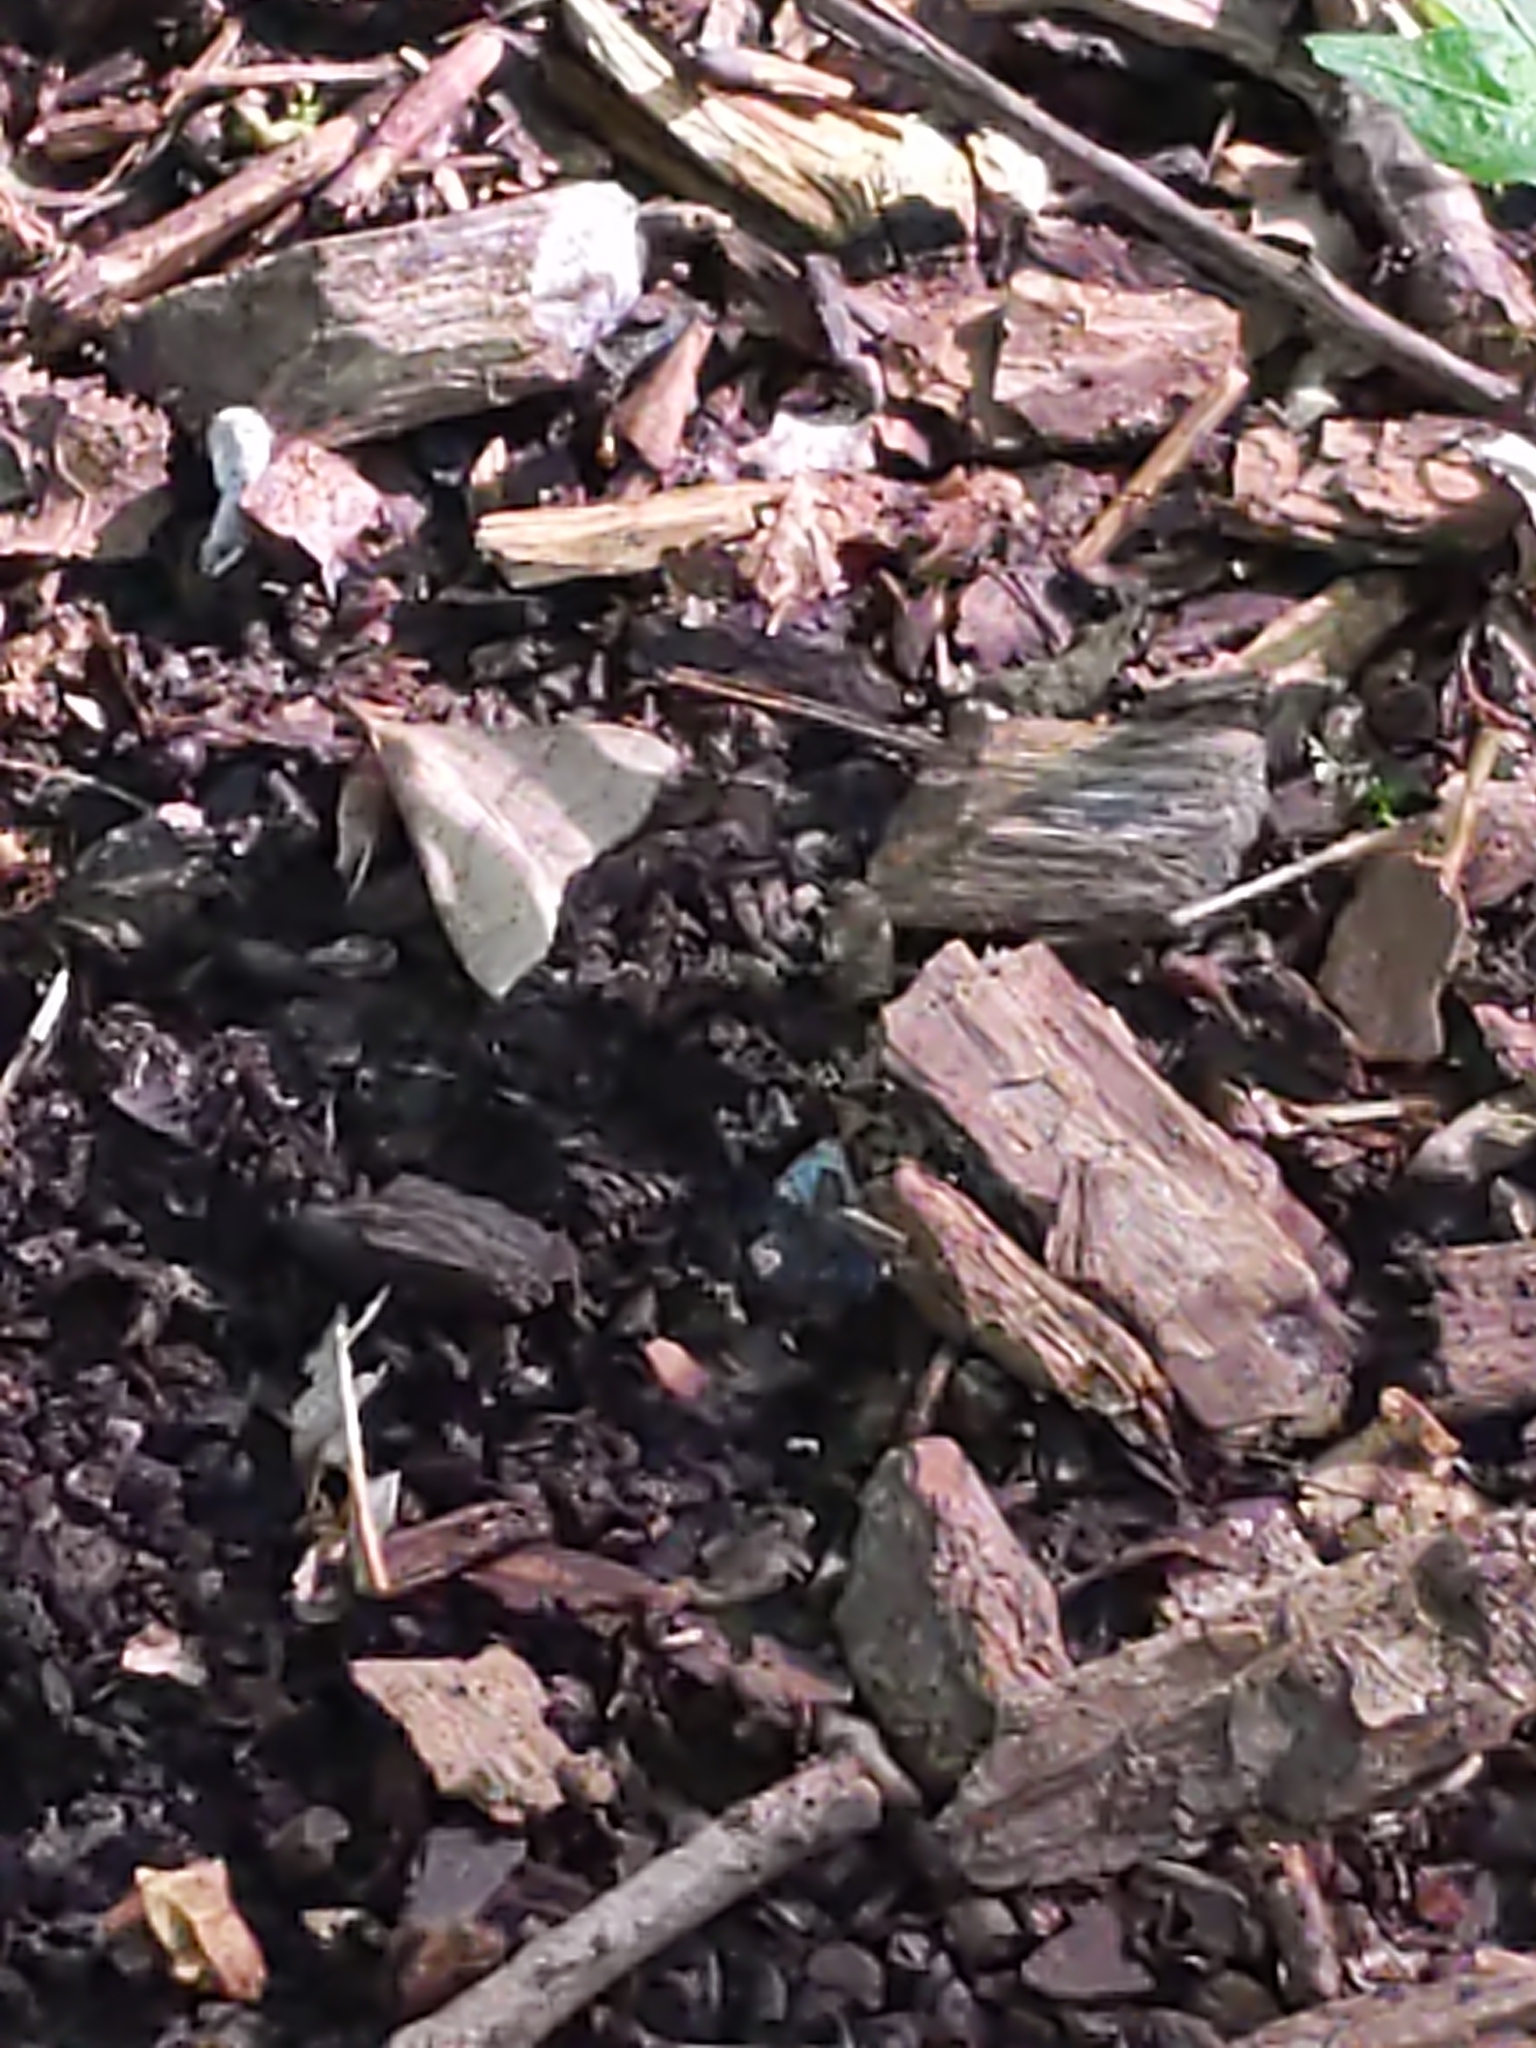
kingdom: Animalia
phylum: Arthropoda
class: Insecta
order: Lepidoptera
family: Erebidae
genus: Renia
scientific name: Renia adspergillus
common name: Speckled renia moth
